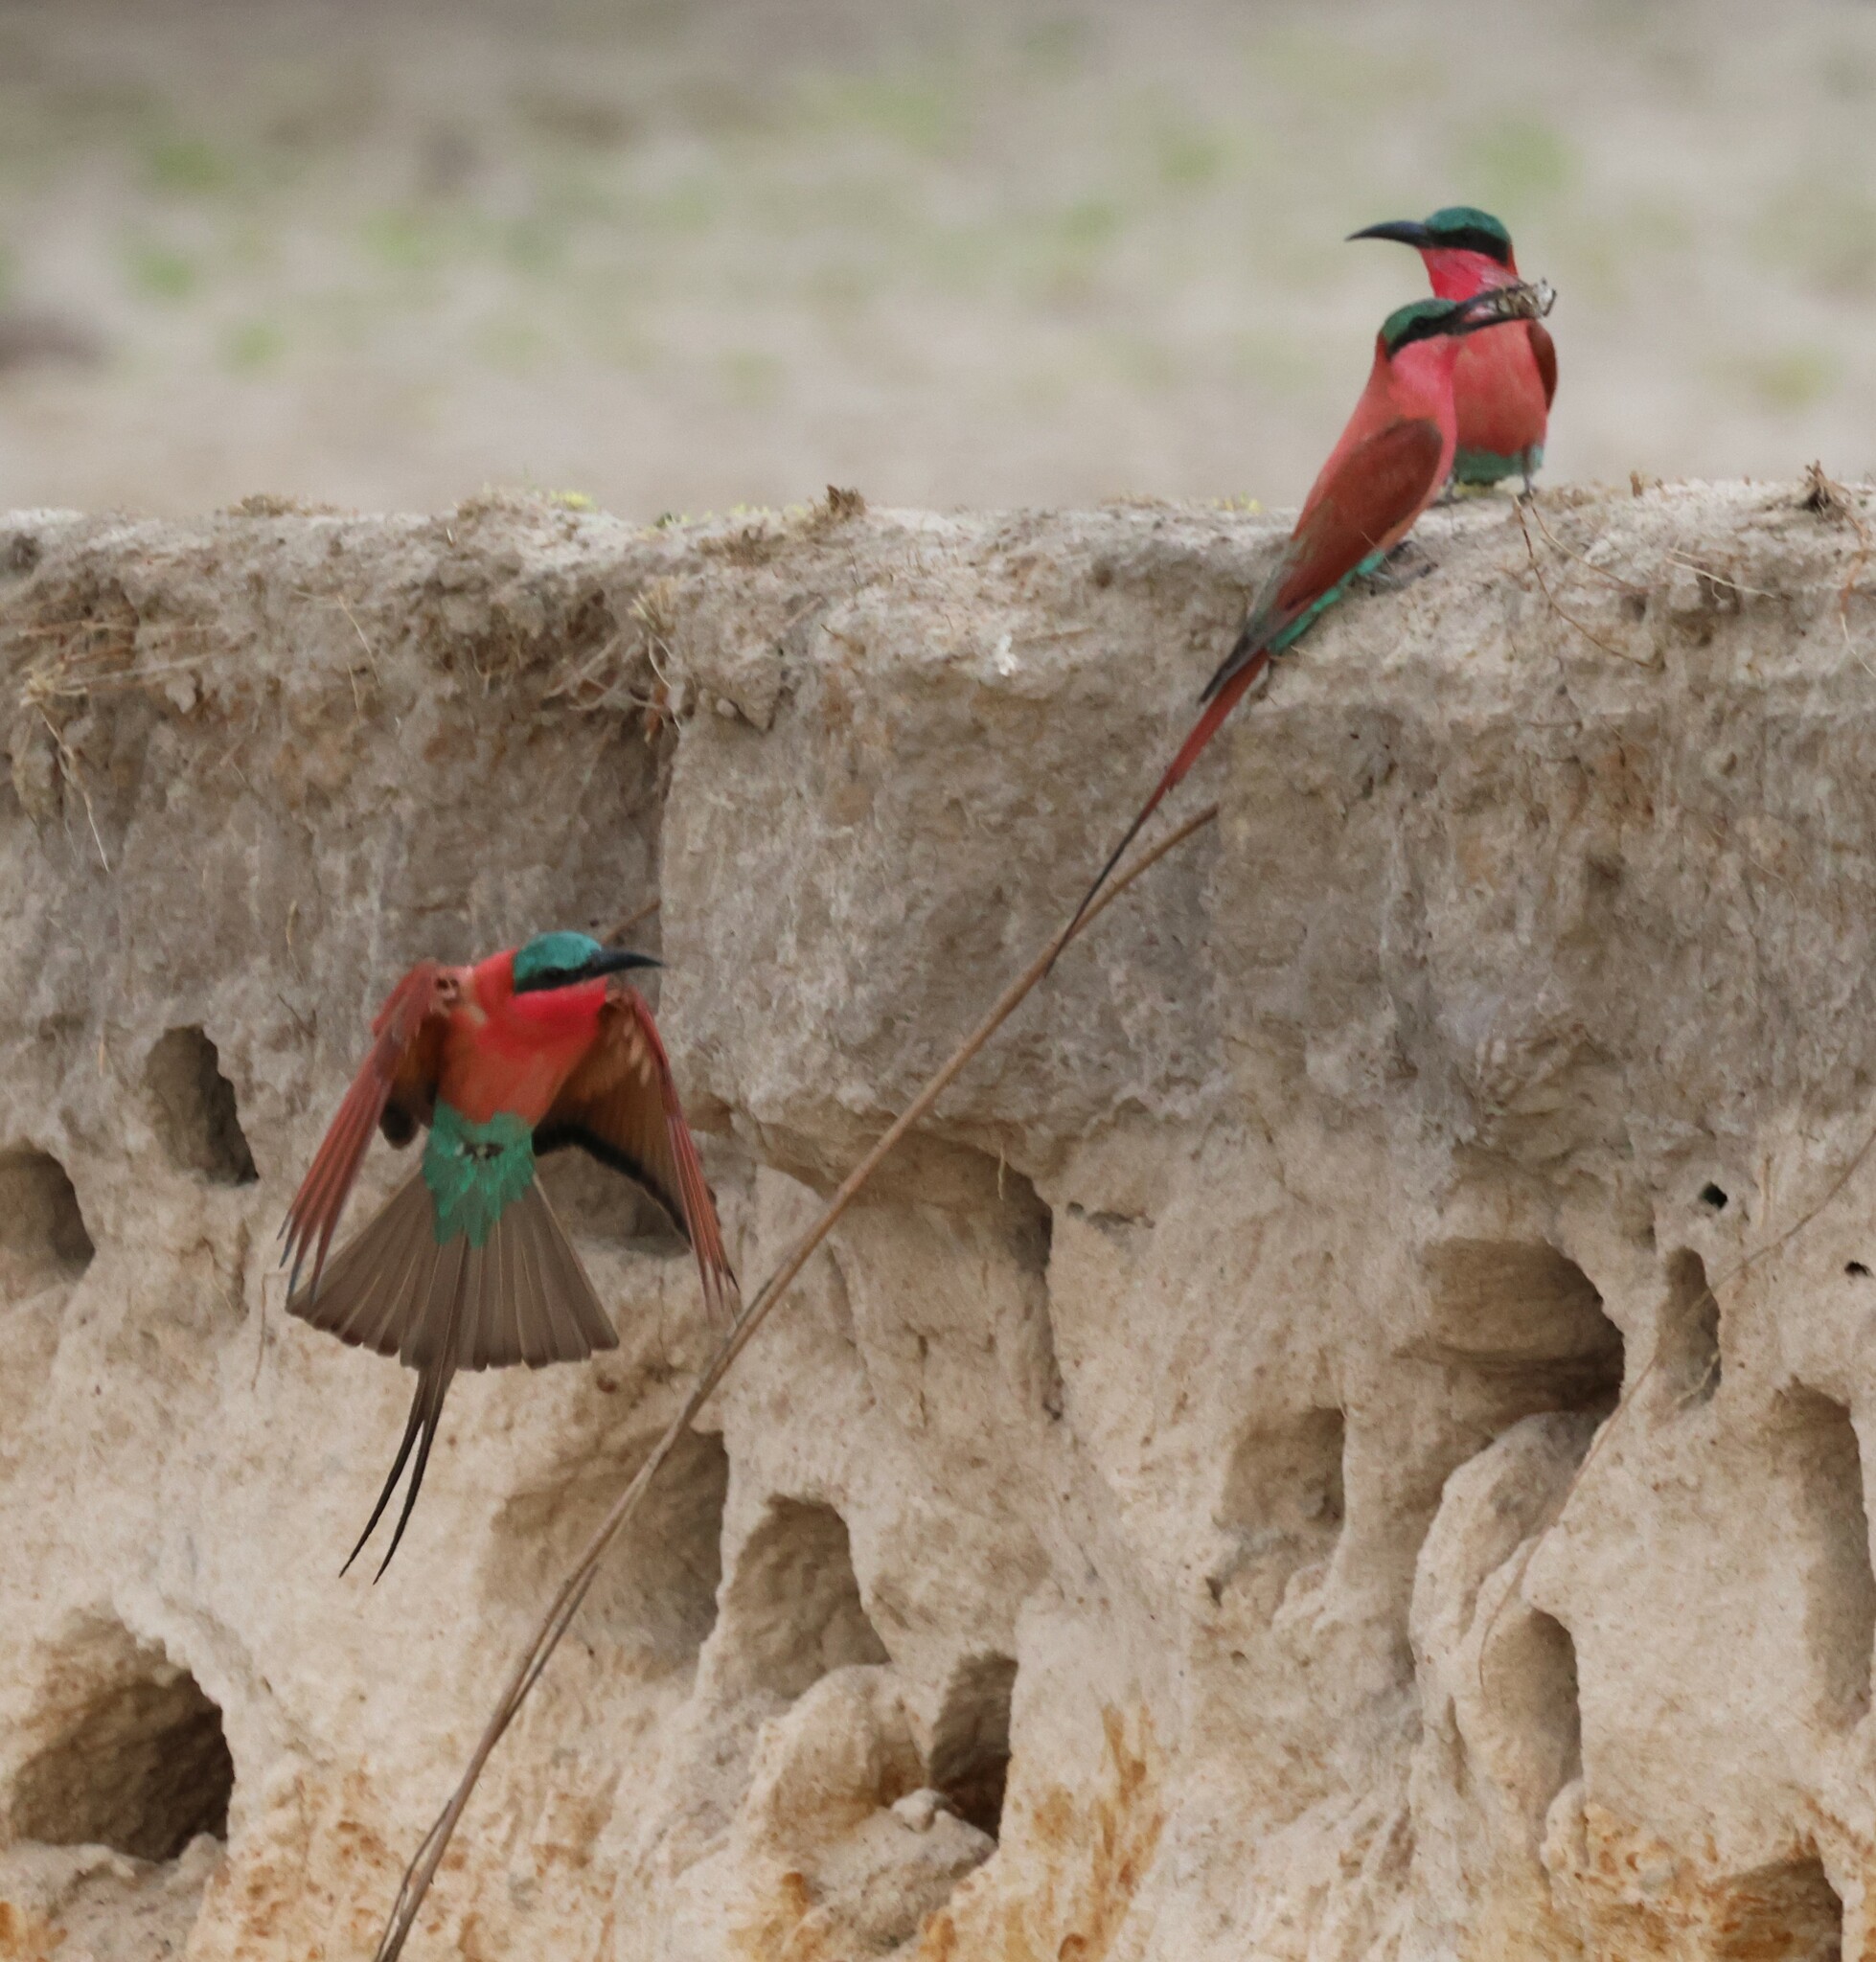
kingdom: Animalia
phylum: Chordata
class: Aves
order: Coraciiformes
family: Meropidae
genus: Merops
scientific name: Merops nubicoides
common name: Southern carmine bee-eater
